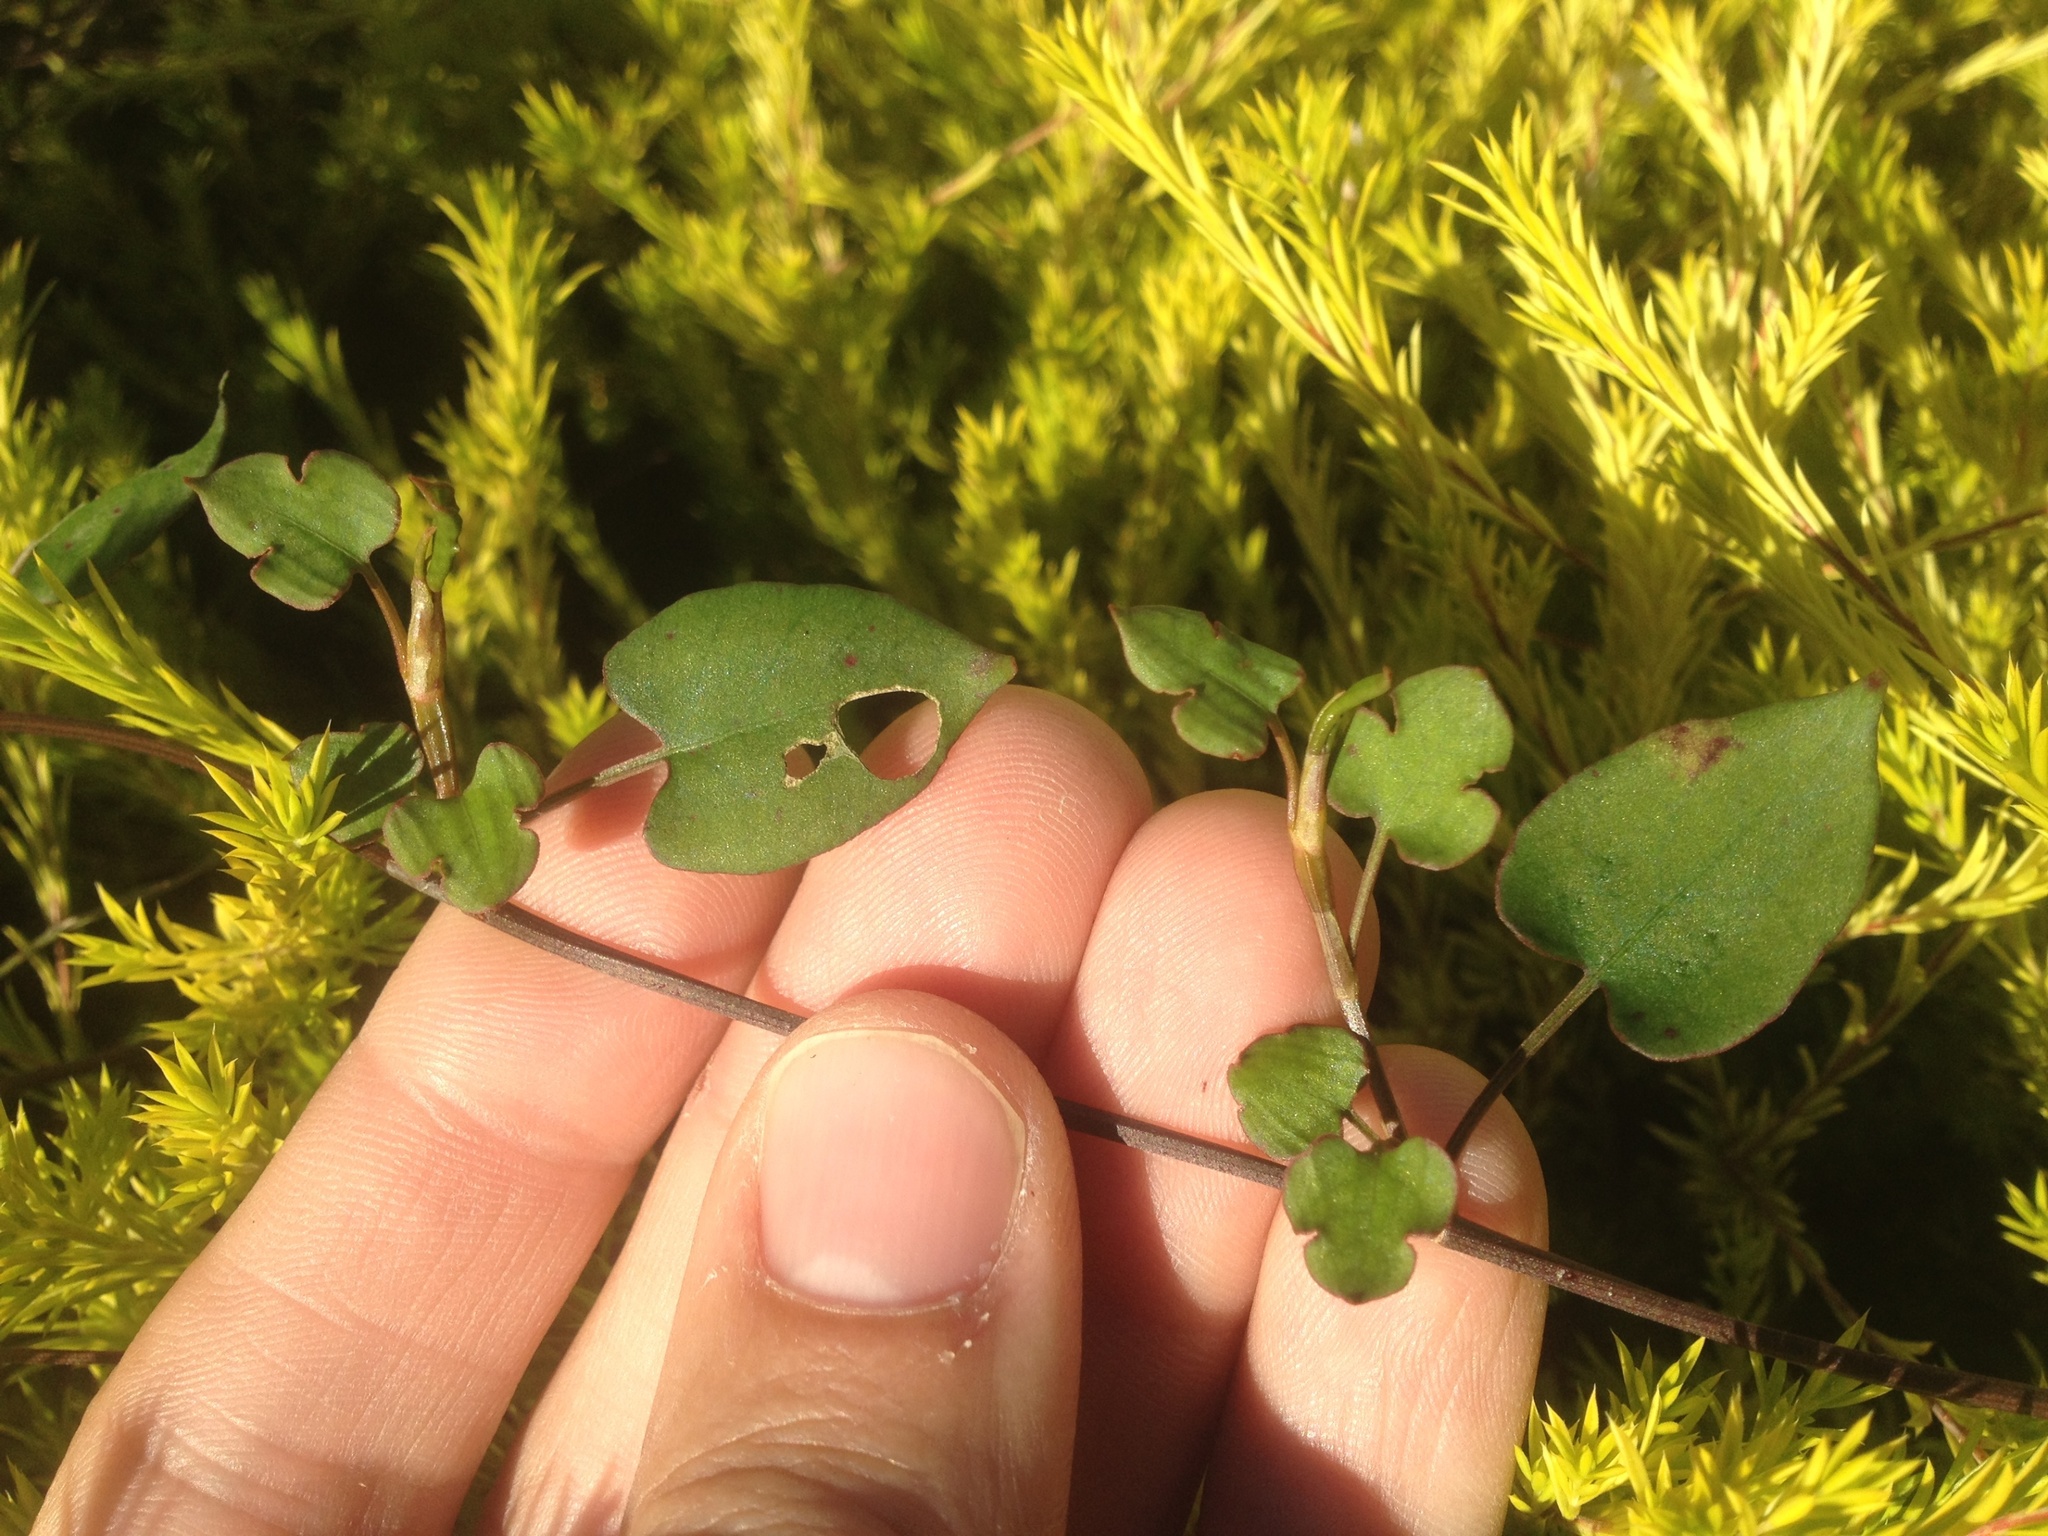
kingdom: Plantae
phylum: Tracheophyta
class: Magnoliopsida
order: Caryophyllales
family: Polygonaceae
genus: Muehlenbeckia
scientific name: Muehlenbeckia australis
